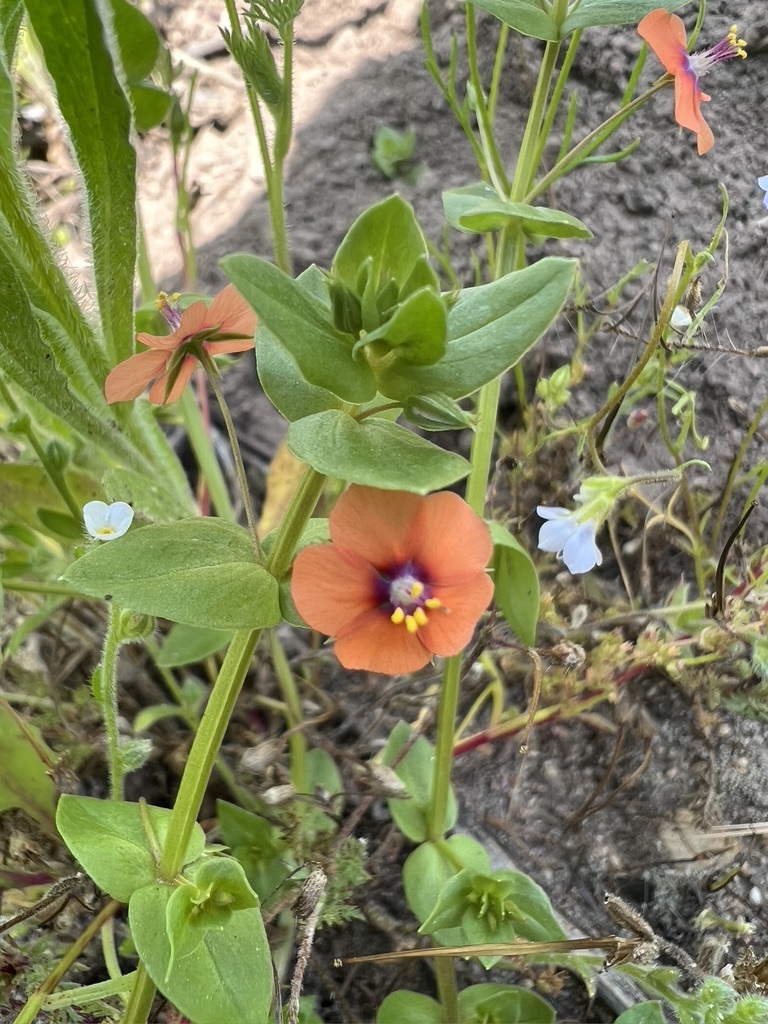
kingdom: Plantae
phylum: Tracheophyta
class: Magnoliopsida
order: Ericales
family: Primulaceae
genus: Lysimachia
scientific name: Lysimachia arvensis
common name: Scarlet pimpernel
